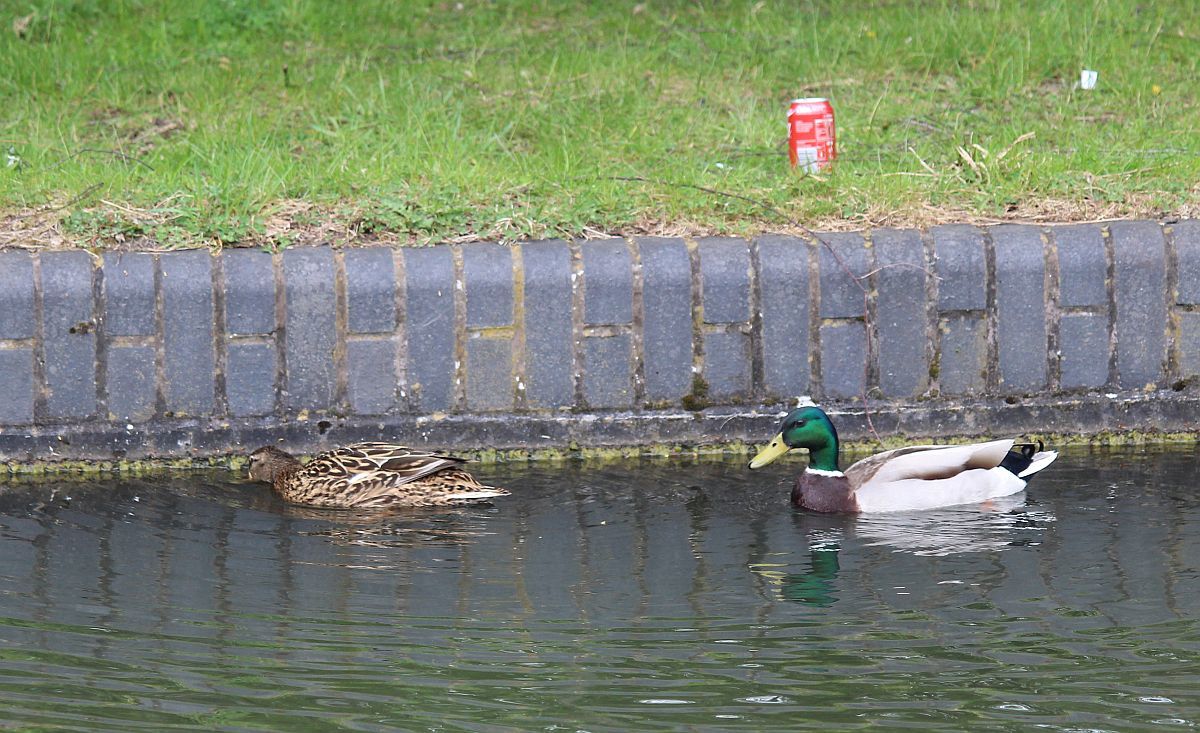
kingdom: Animalia
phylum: Chordata
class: Aves
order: Anseriformes
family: Anatidae
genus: Anas
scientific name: Anas platyrhynchos
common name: Mallard
